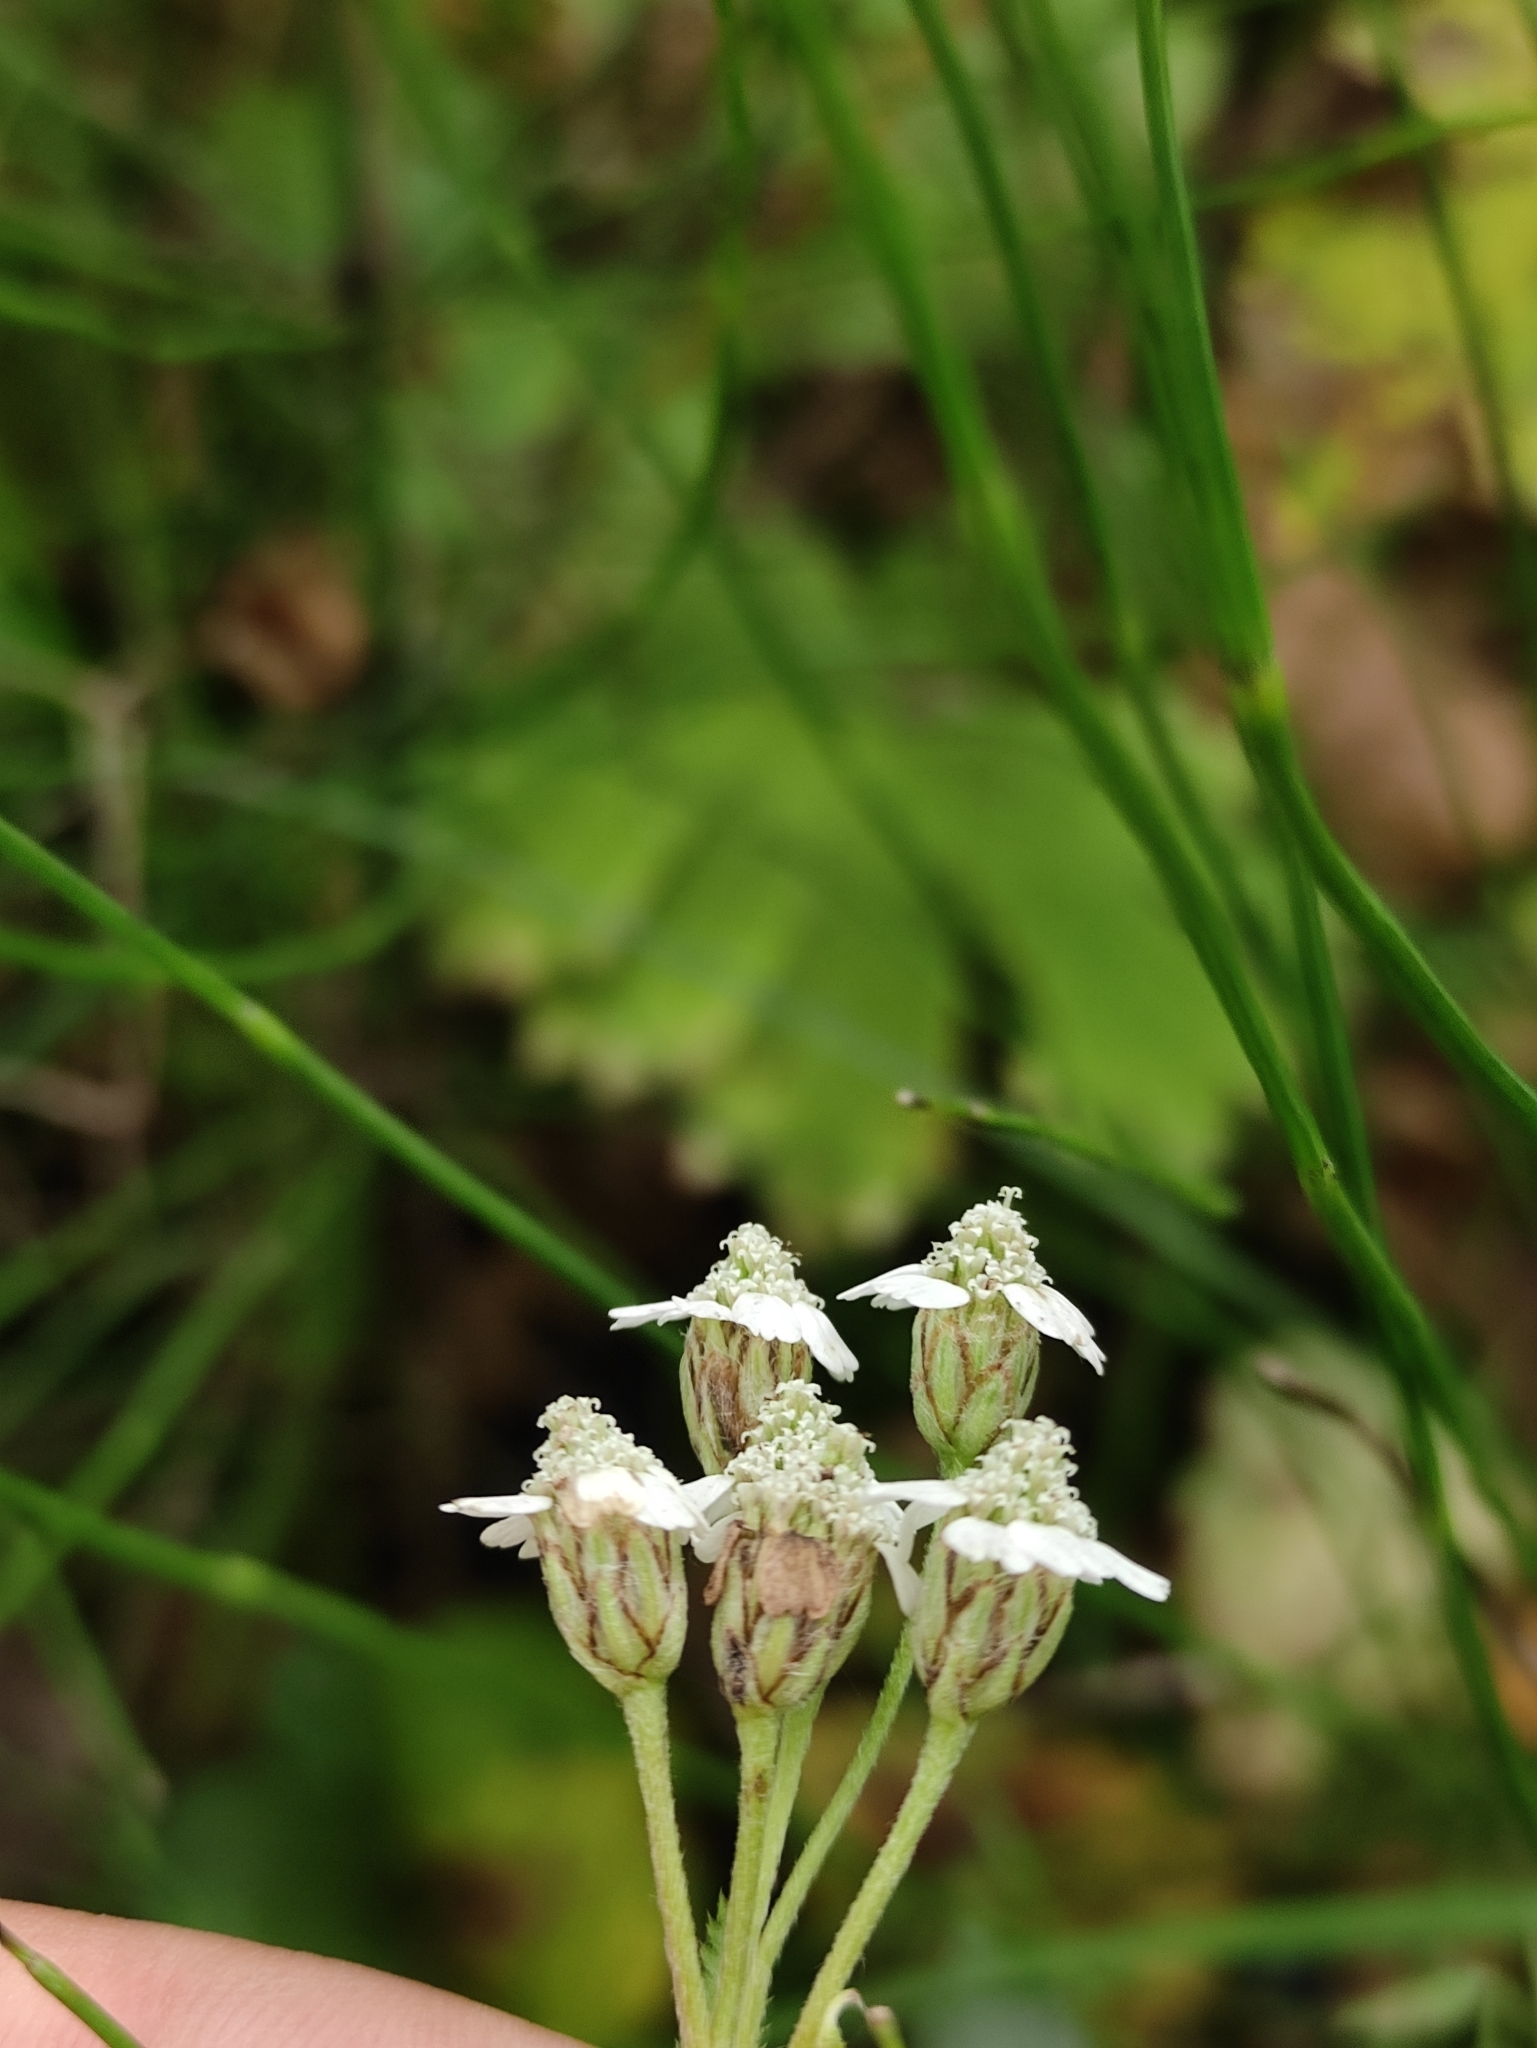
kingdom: Plantae
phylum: Tracheophyta
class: Magnoliopsida
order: Asterales
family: Asteraceae
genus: Achillea
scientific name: Achillea alpina
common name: Siberian yarrow
